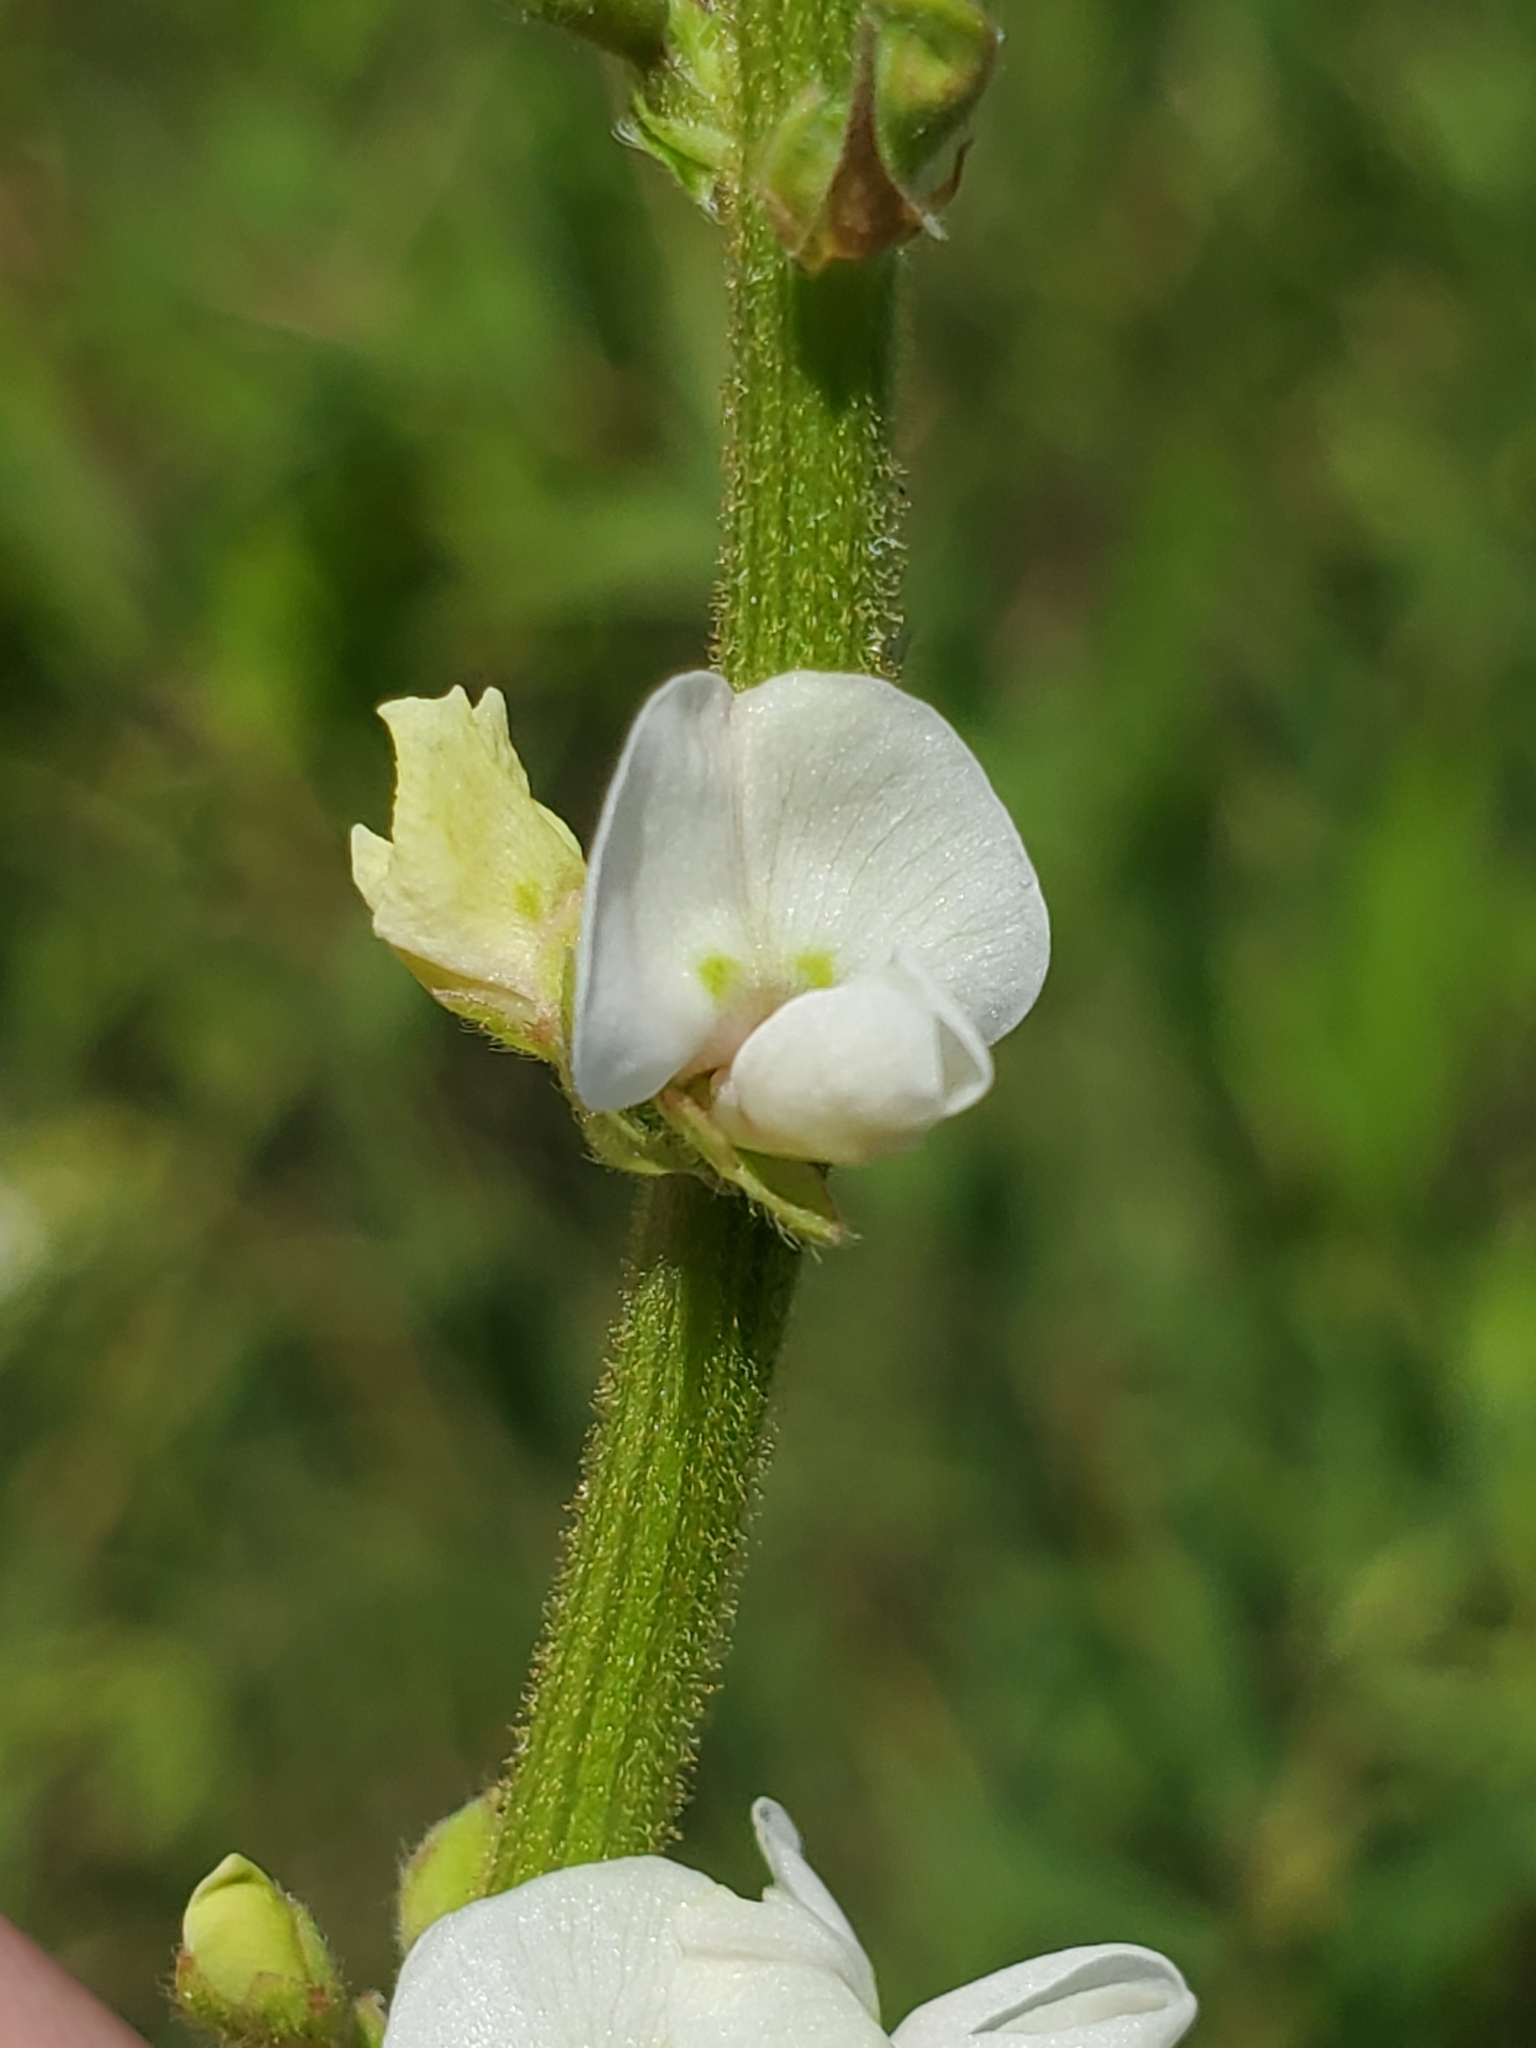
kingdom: Plantae
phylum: Tracheophyta
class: Magnoliopsida
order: Fabales
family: Fabaceae
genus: Desmodium
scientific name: Desmodium sessilifolium
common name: Sessile tick-clover
